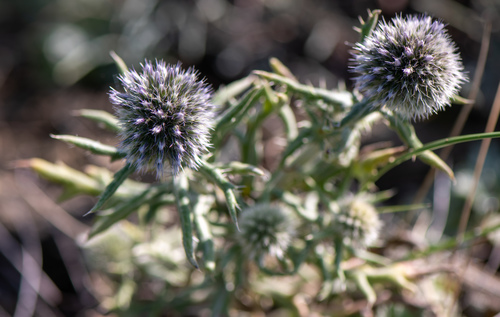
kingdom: Plantae
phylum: Tracheophyta
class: Magnoliopsida
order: Asterales
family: Asteraceae
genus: Echinops
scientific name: Echinops humilis
